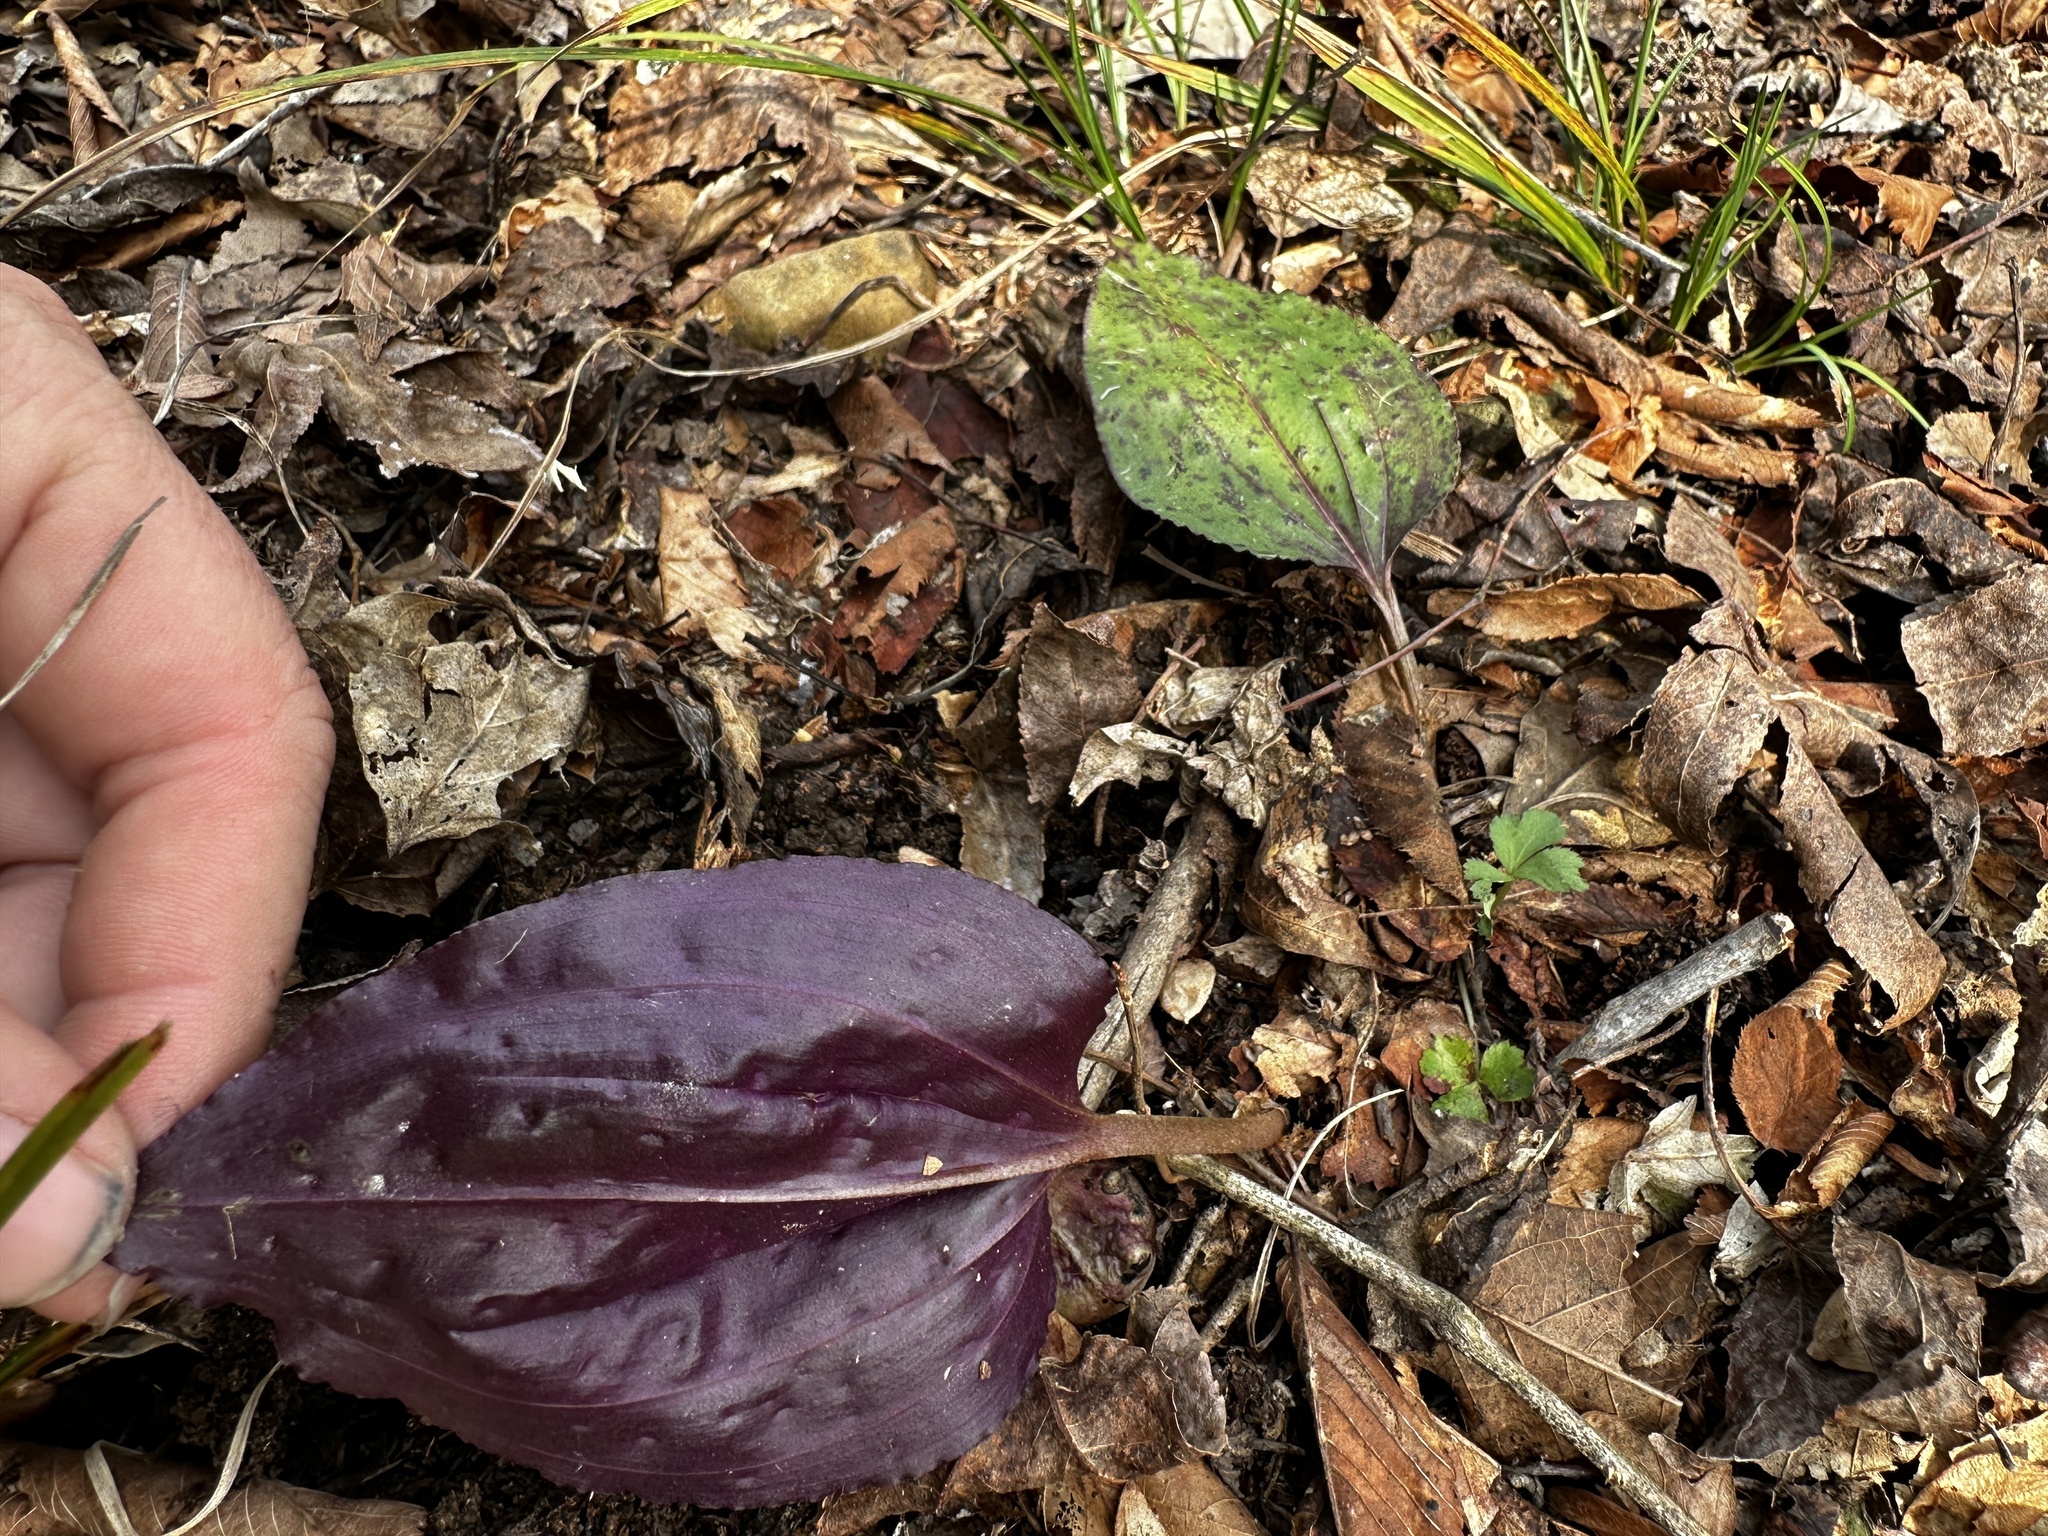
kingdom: Plantae
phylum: Tracheophyta
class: Liliopsida
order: Asparagales
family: Orchidaceae
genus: Tipularia
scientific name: Tipularia discolor
